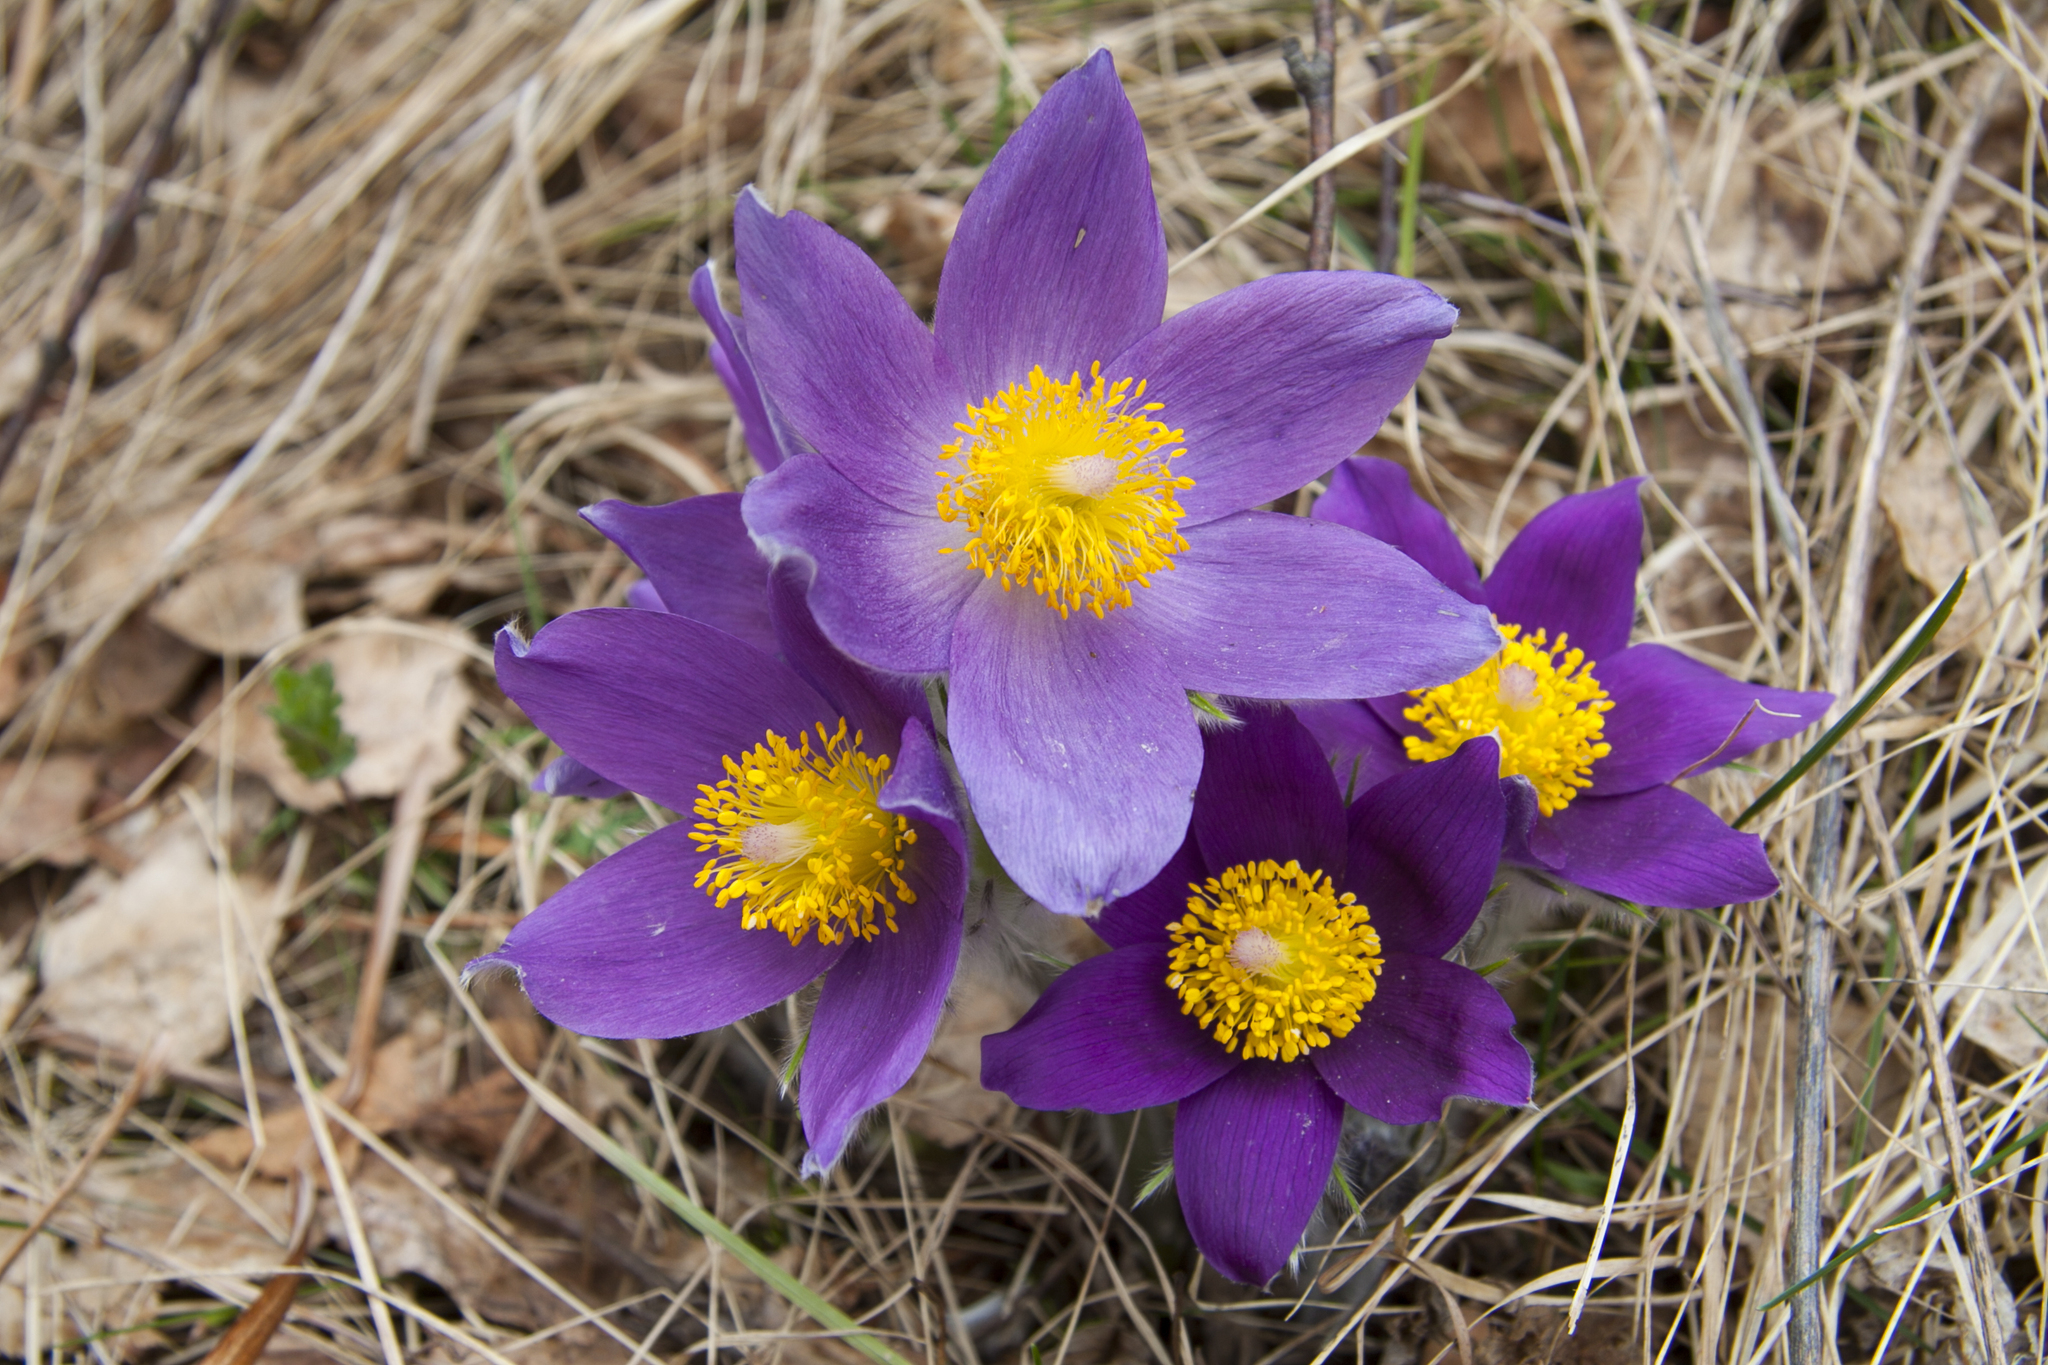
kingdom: Plantae
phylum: Tracheophyta
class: Magnoliopsida
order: Ranunculales
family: Ranunculaceae
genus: Pulsatilla
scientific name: Pulsatilla patens
